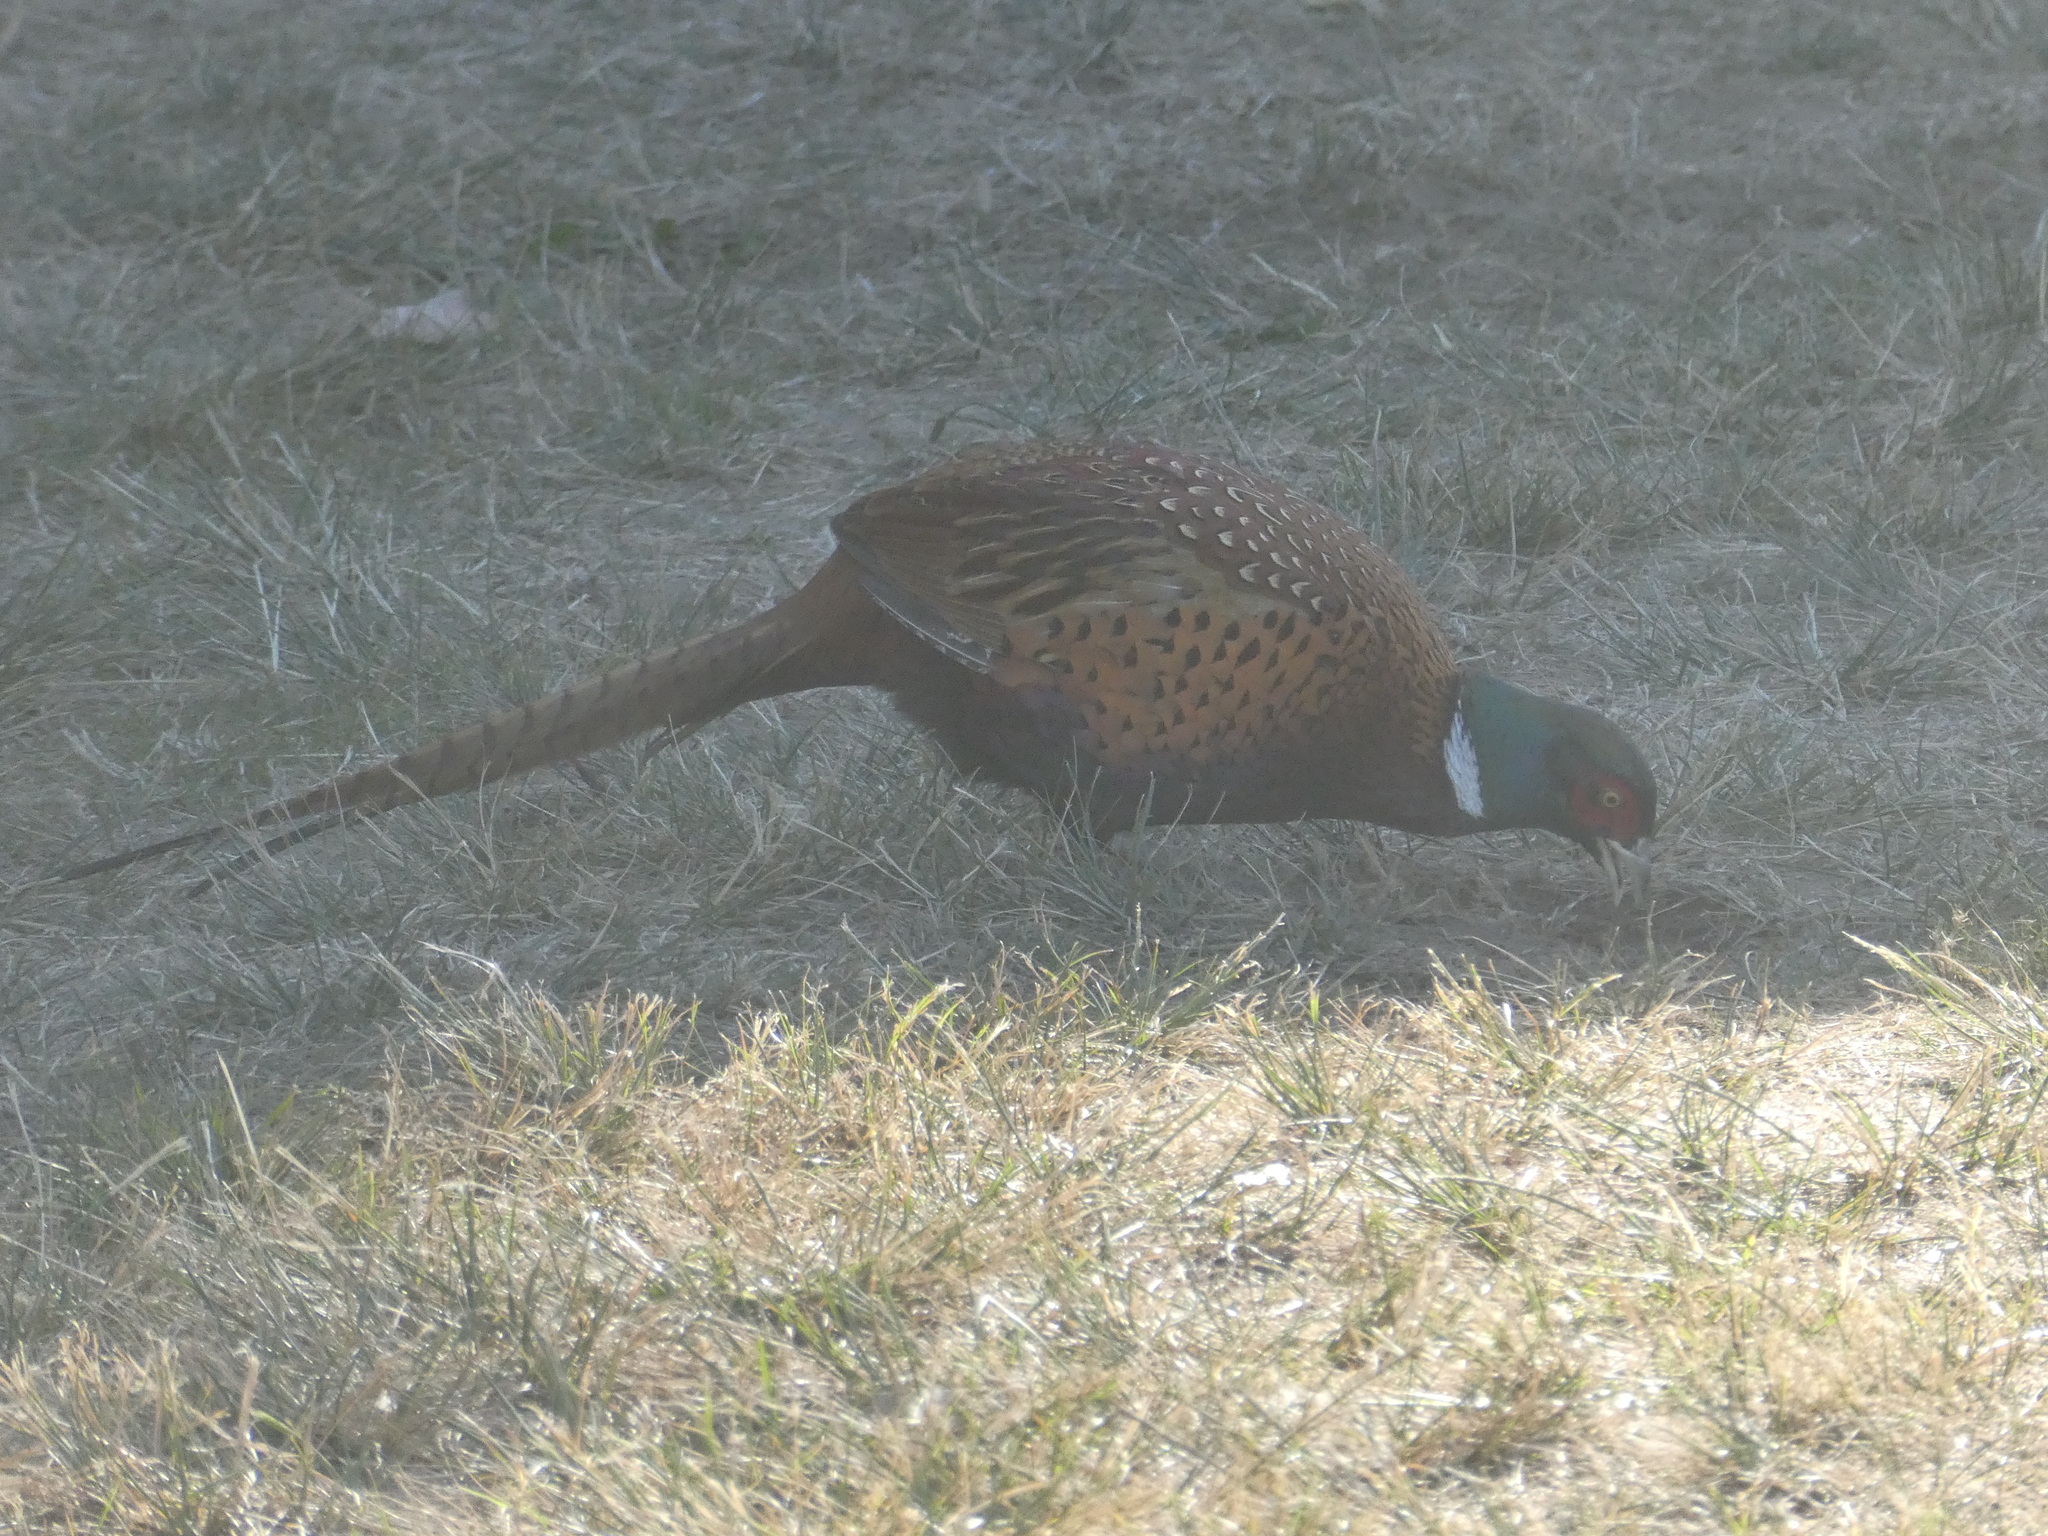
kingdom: Animalia
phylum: Chordata
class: Aves
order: Galliformes
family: Phasianidae
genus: Phasianus
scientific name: Phasianus colchicus
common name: Common pheasant
